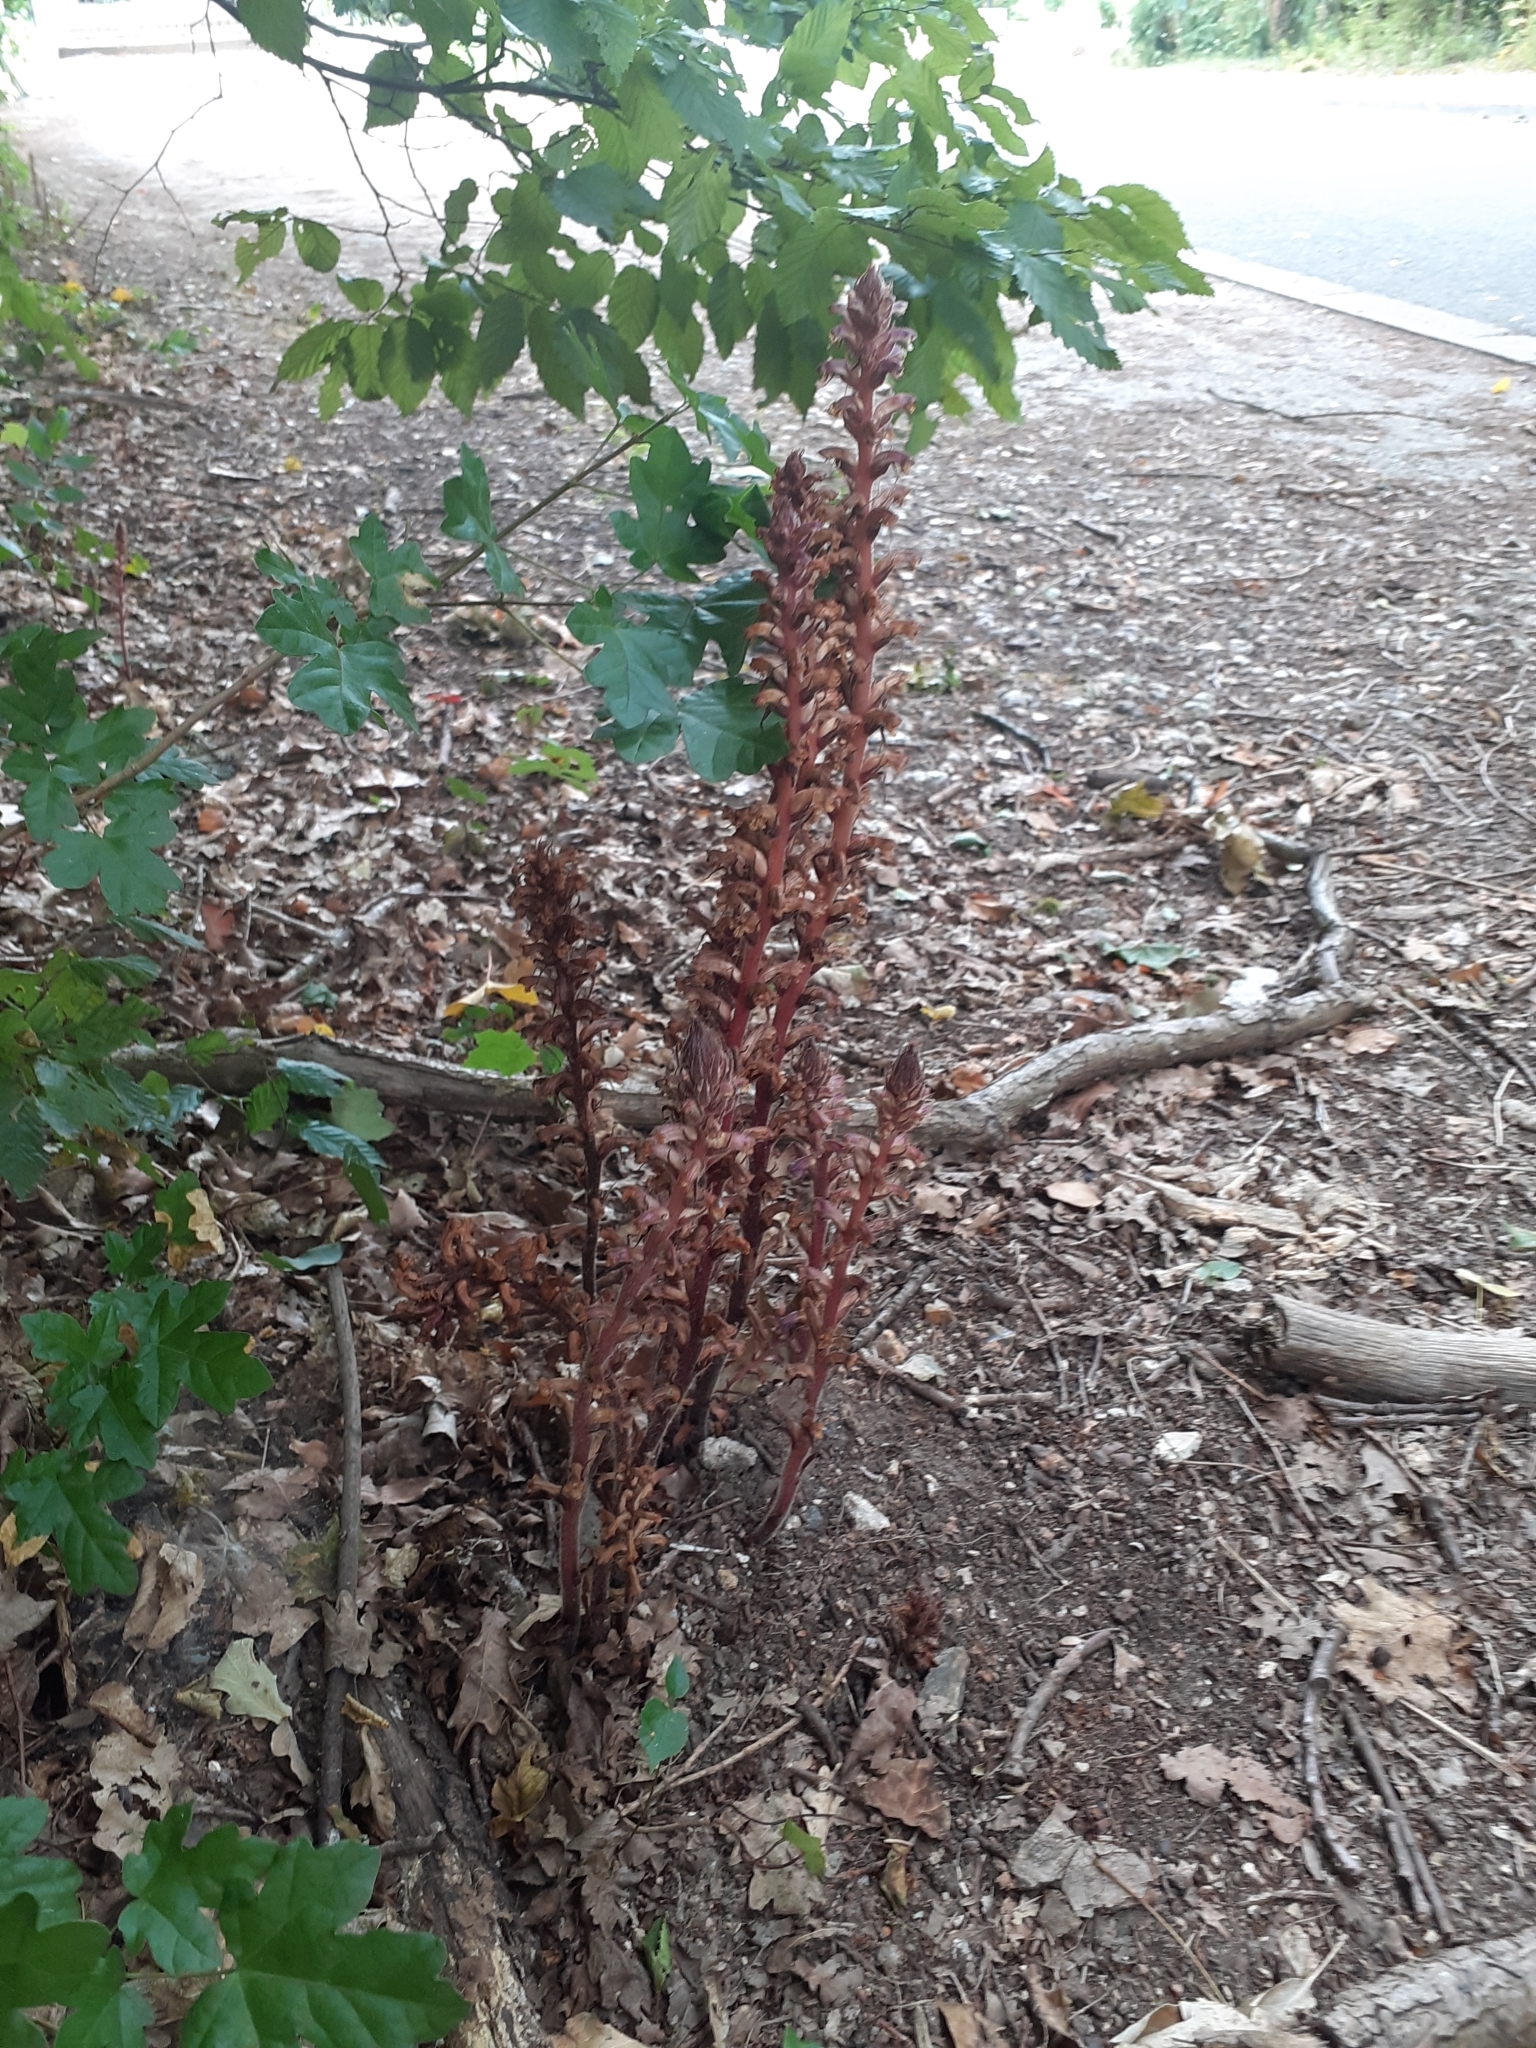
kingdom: Plantae
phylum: Tracheophyta
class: Magnoliopsida
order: Lamiales
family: Orobanchaceae
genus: Orobanche
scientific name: Orobanche hederae
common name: Ivy broomrape
